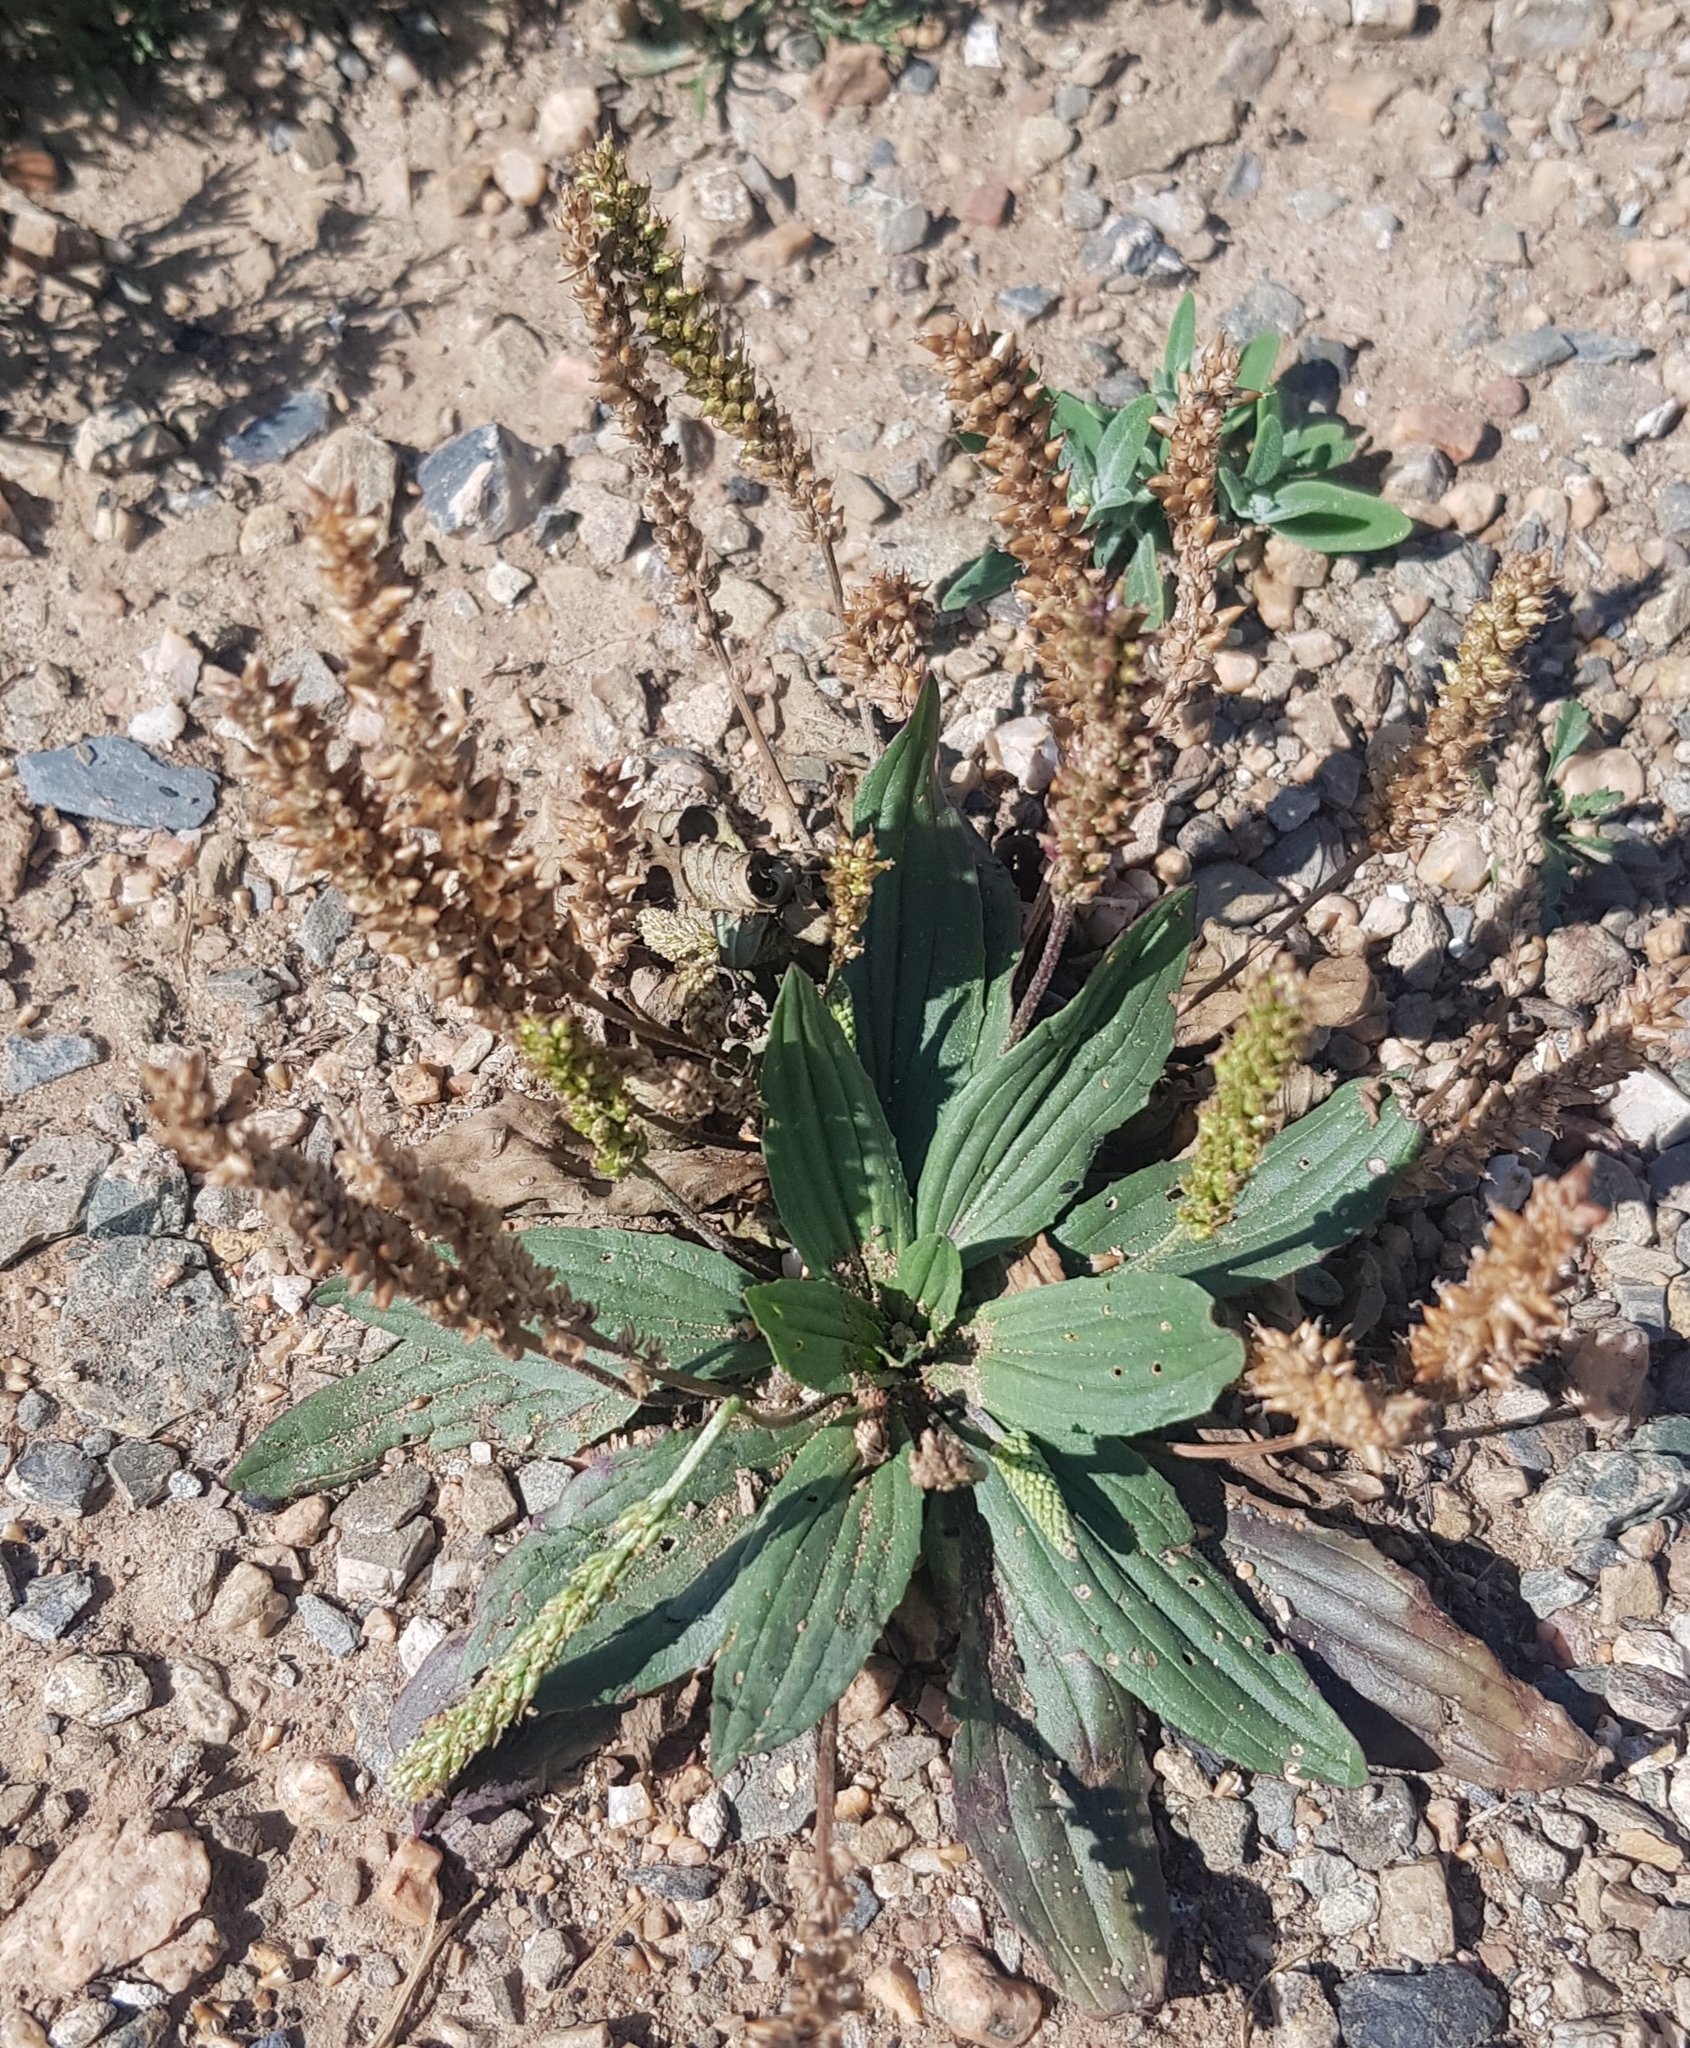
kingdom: Plantae
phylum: Tracheophyta
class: Magnoliopsida
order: Lamiales
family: Plantaginaceae
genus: Plantago
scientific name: Plantago depressa
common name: Depressed plantain
